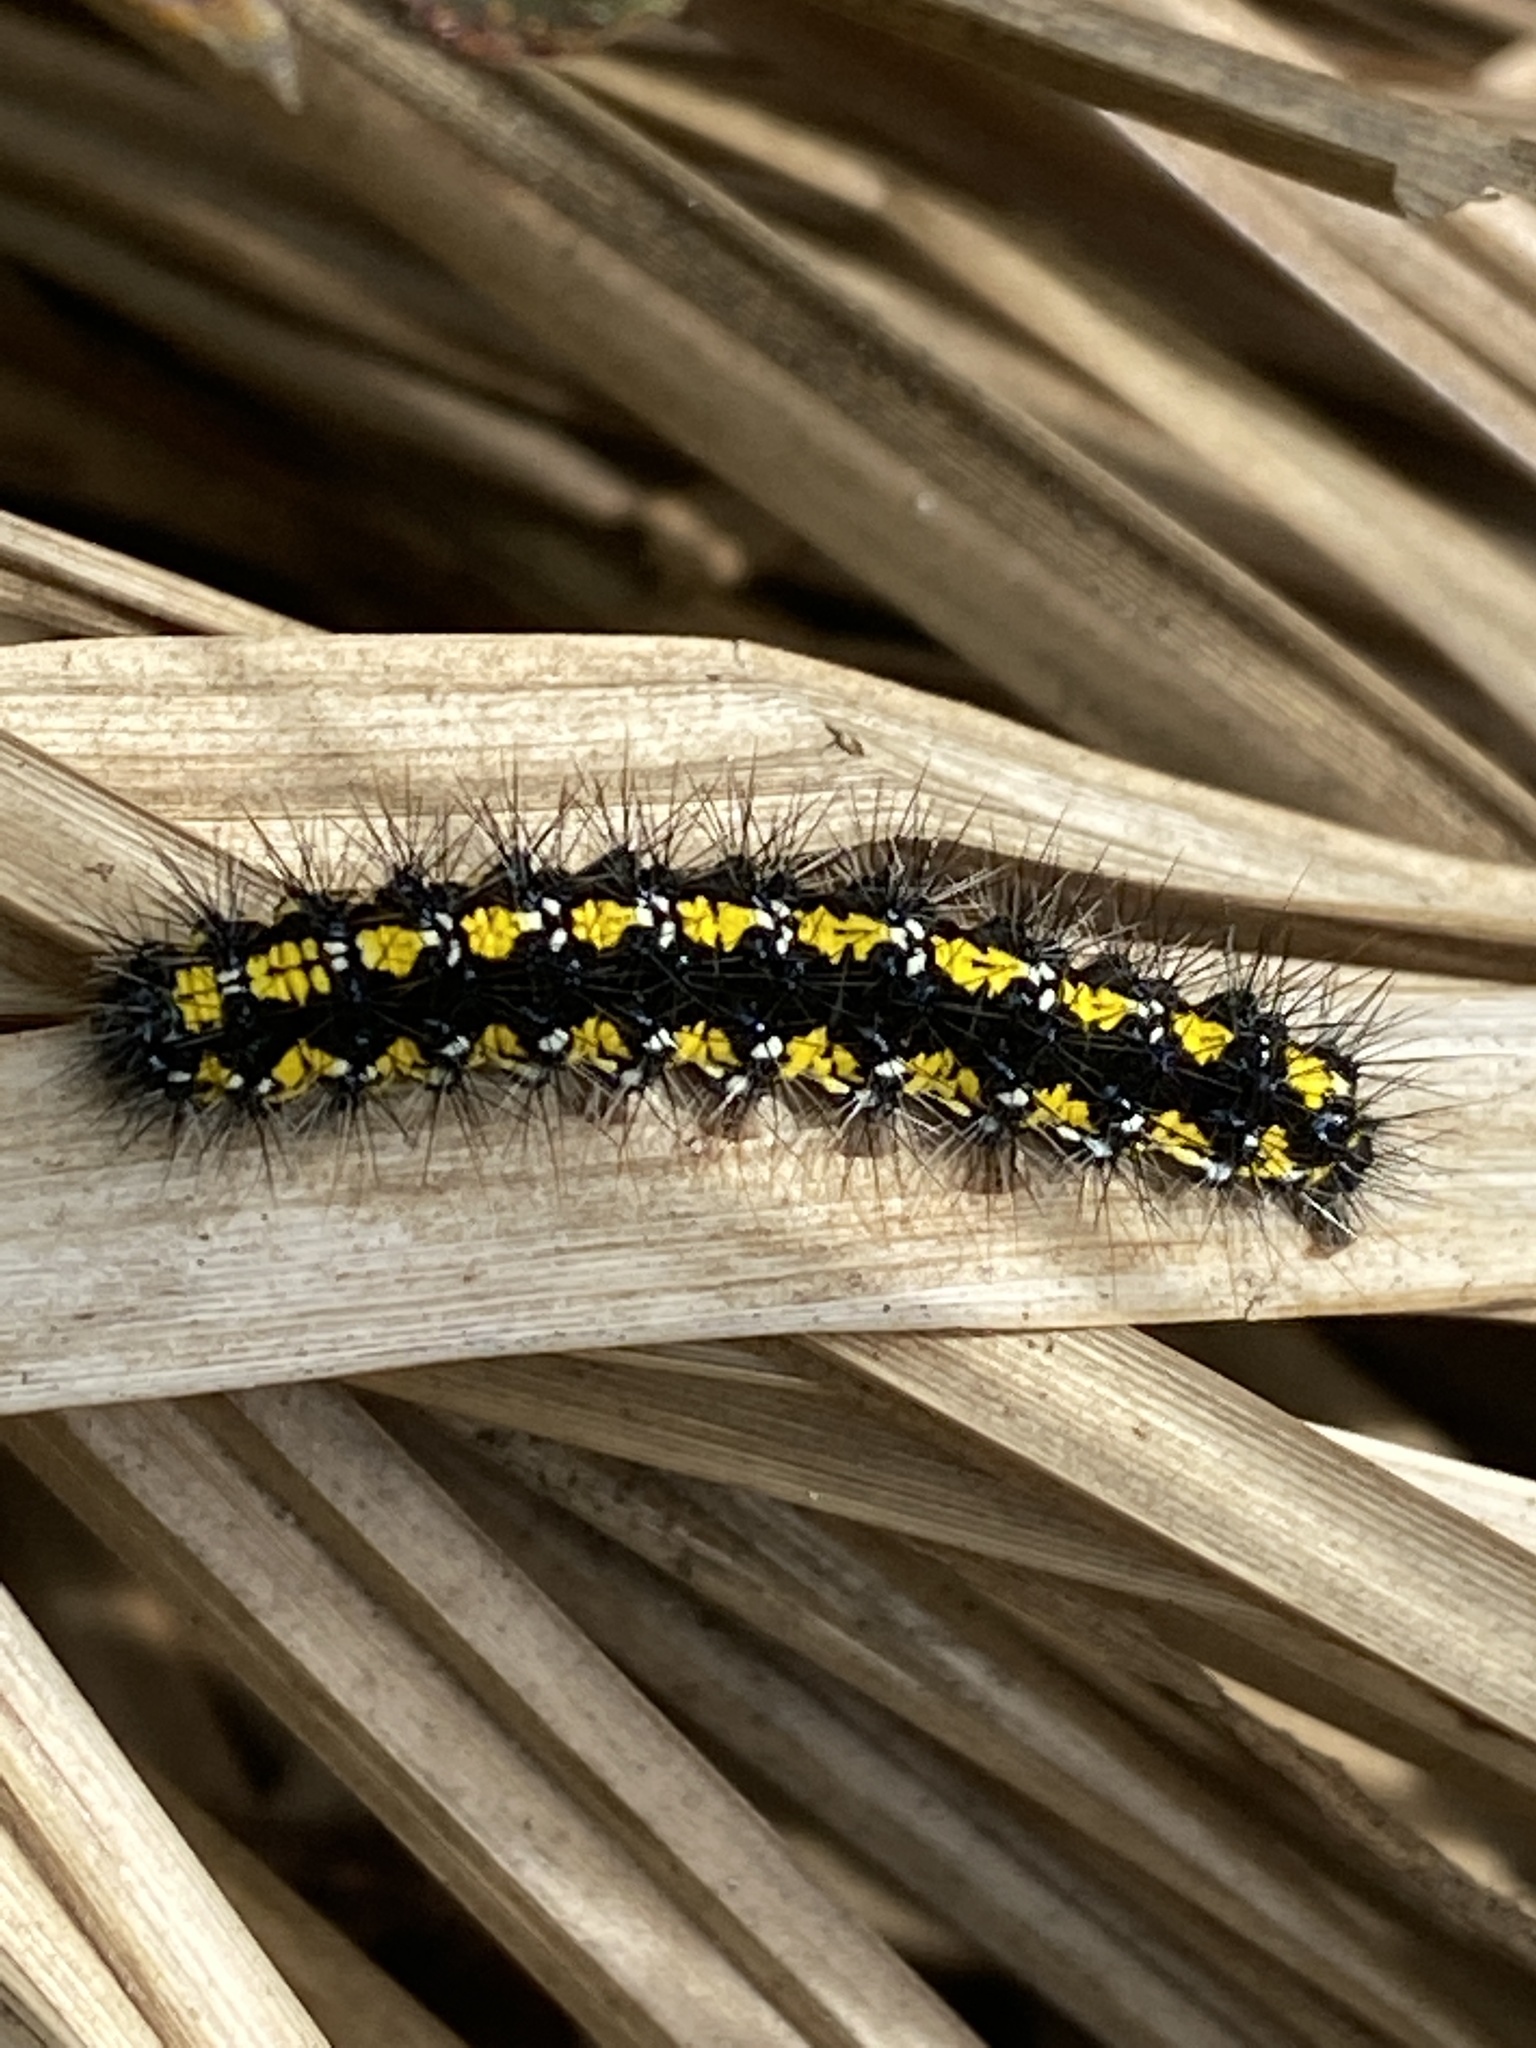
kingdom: Animalia
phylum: Arthropoda
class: Insecta
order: Lepidoptera
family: Erebidae
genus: Callimorpha
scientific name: Callimorpha dominula
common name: Scarlet tiger
